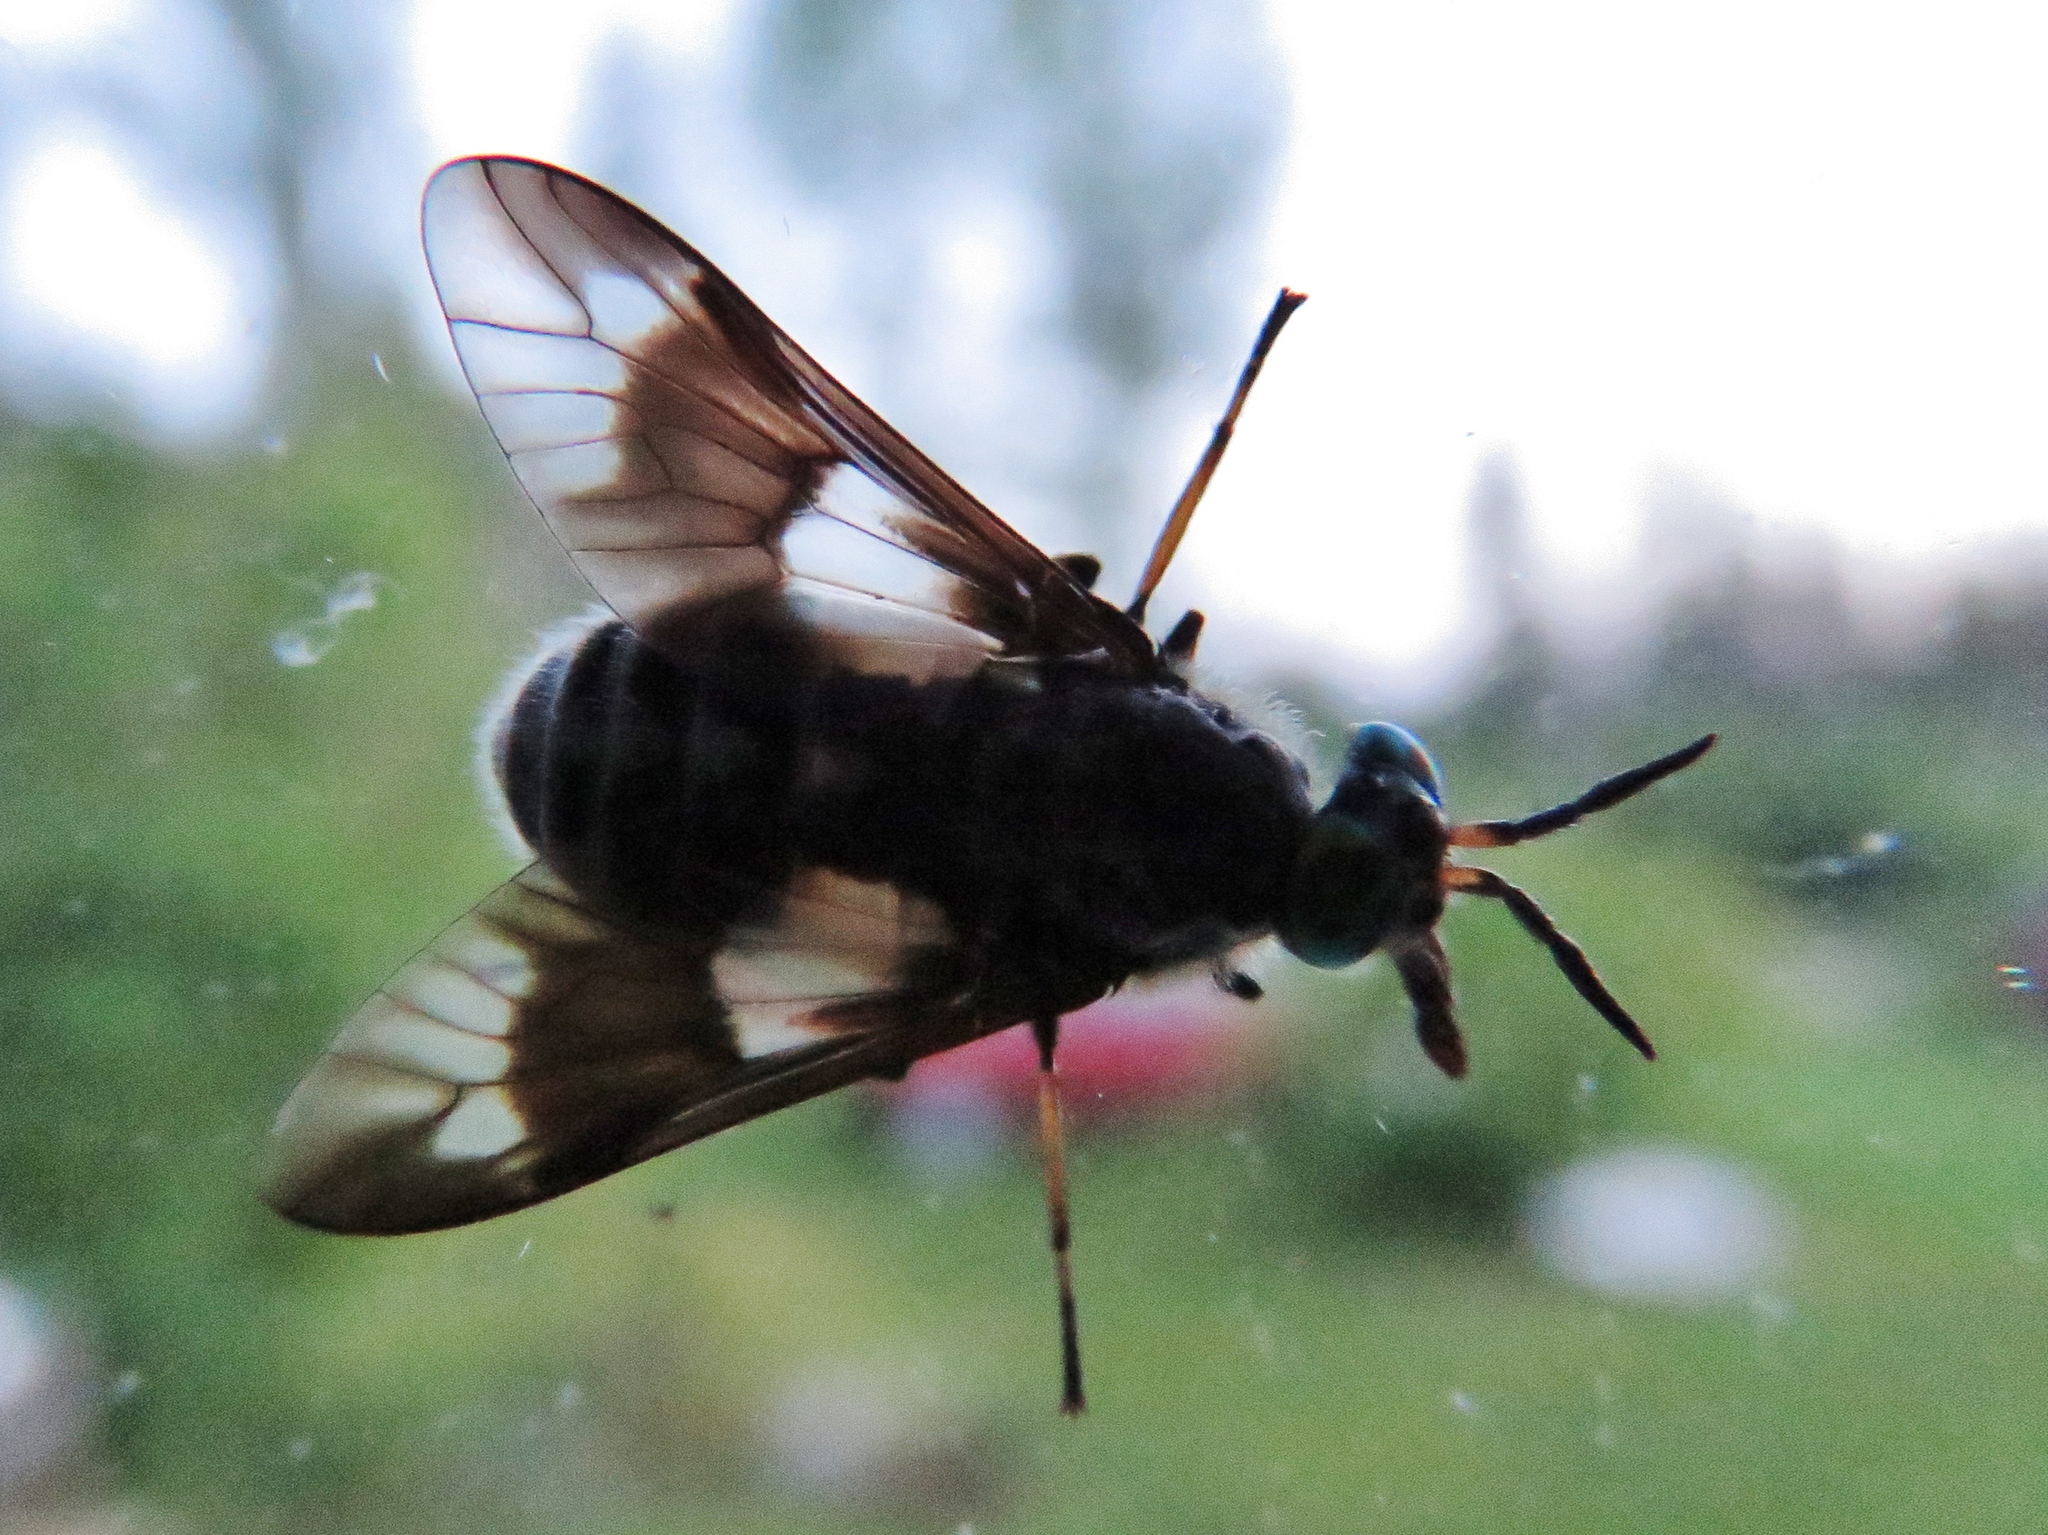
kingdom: Animalia
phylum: Arthropoda
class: Insecta
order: Diptera
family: Tabanidae
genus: Chrysops
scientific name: Chrysops relictus
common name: Twin-lobed deerfly
